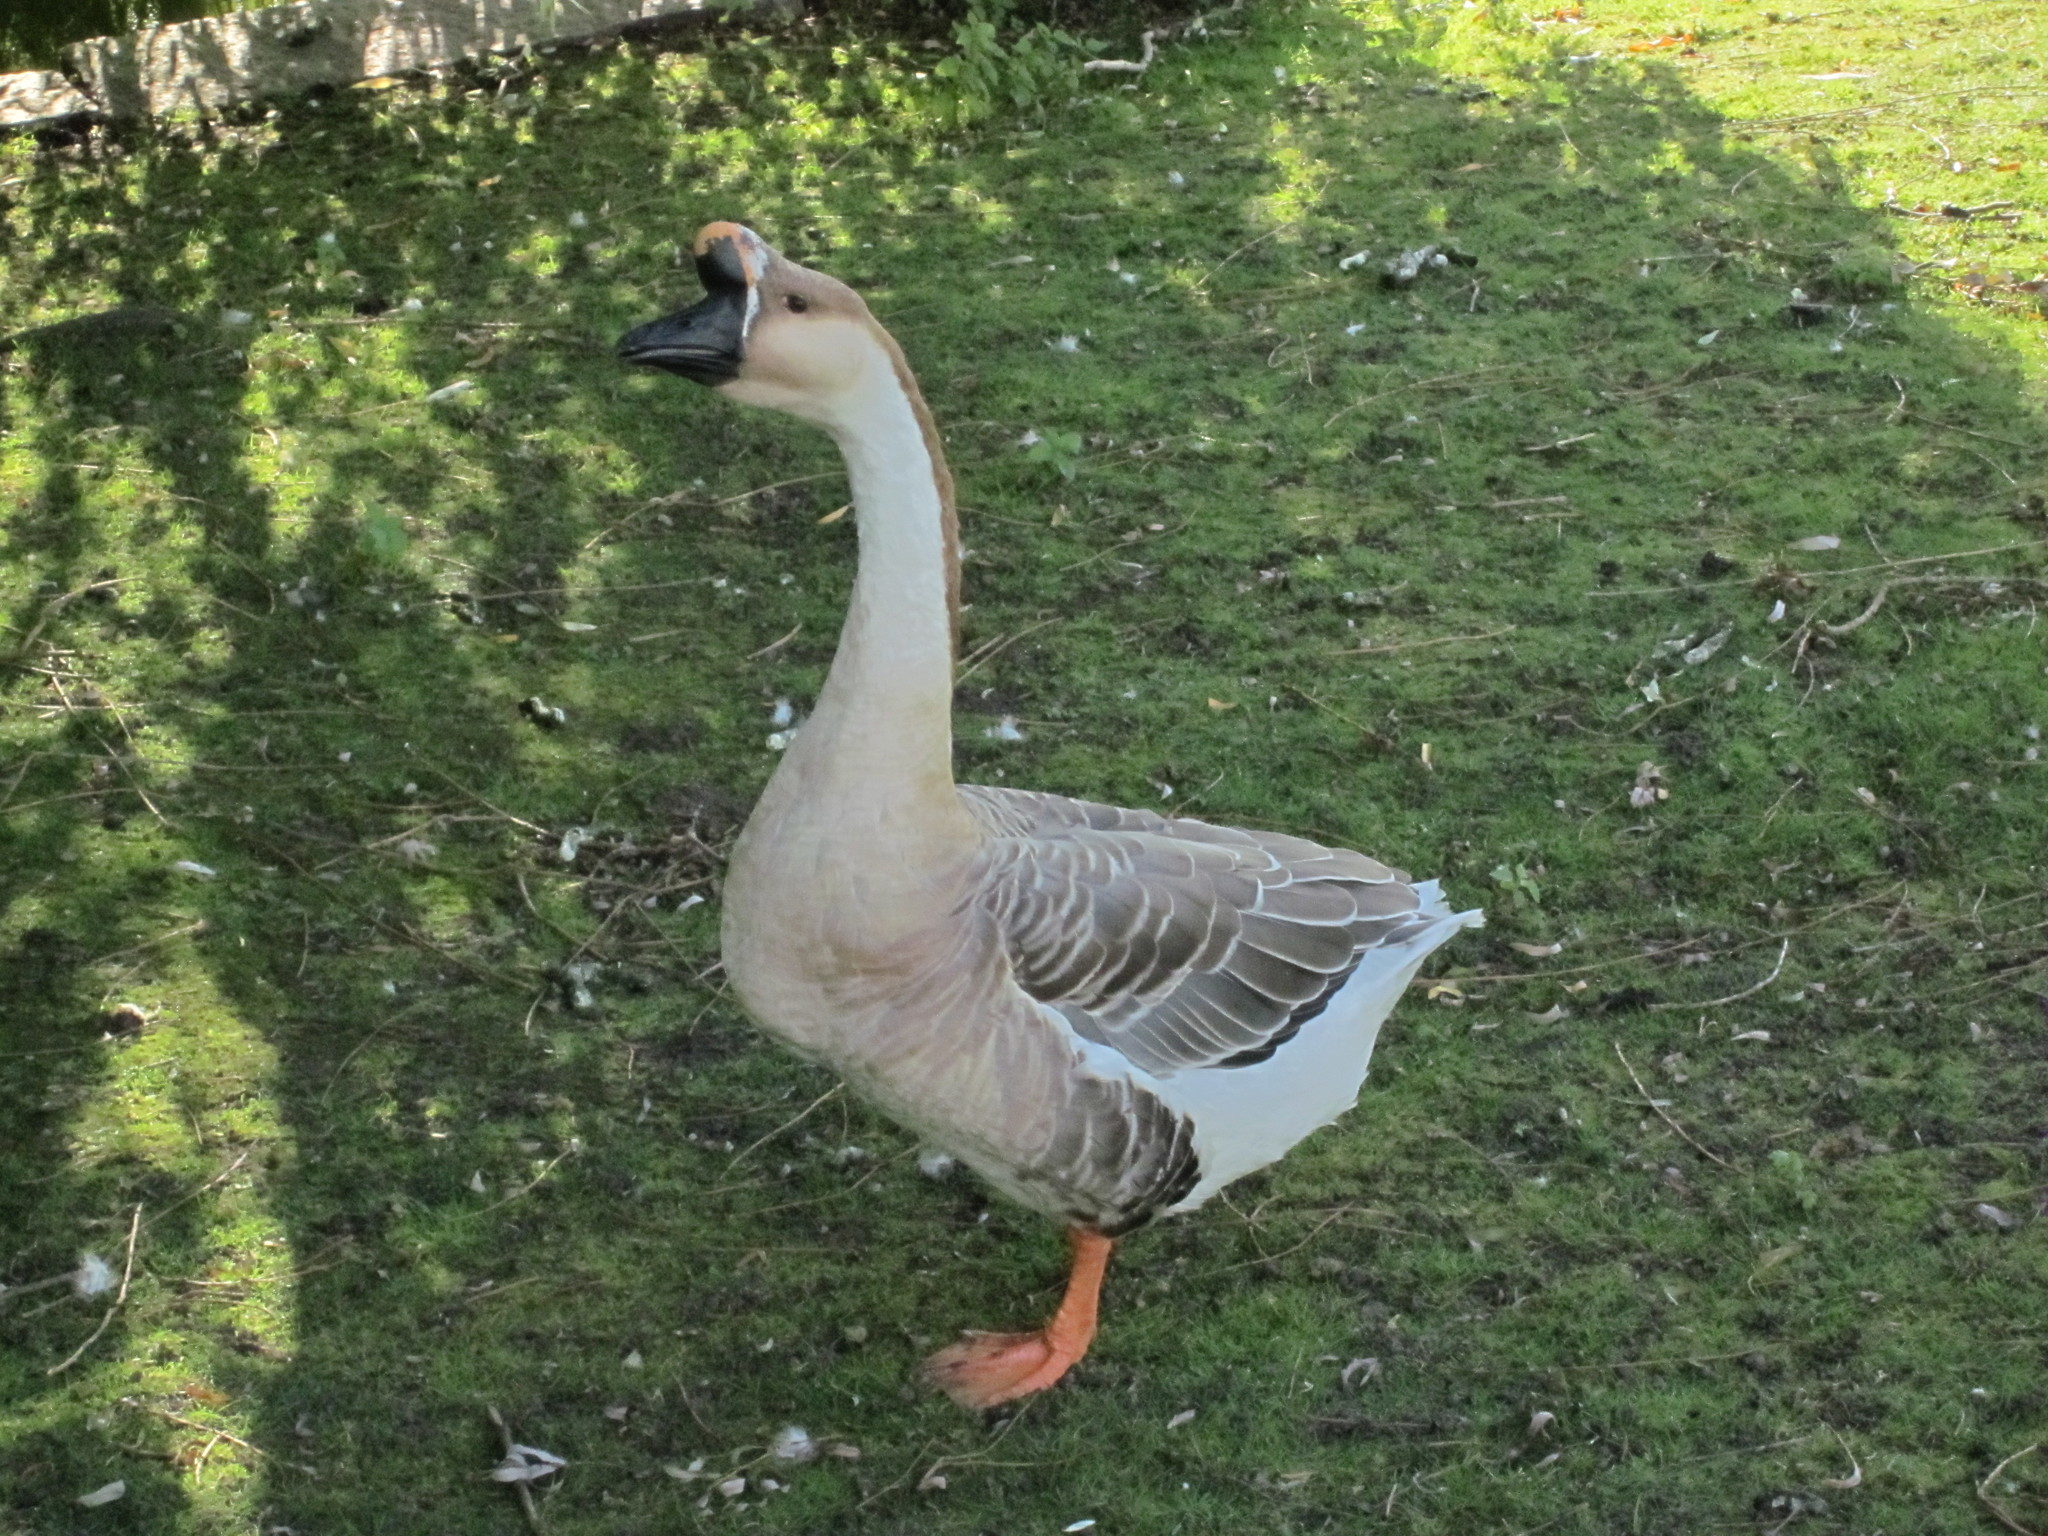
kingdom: Animalia
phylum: Chordata
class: Aves
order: Anseriformes
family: Anatidae
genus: Anser
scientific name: Anser cygnoides
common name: Swan goose
